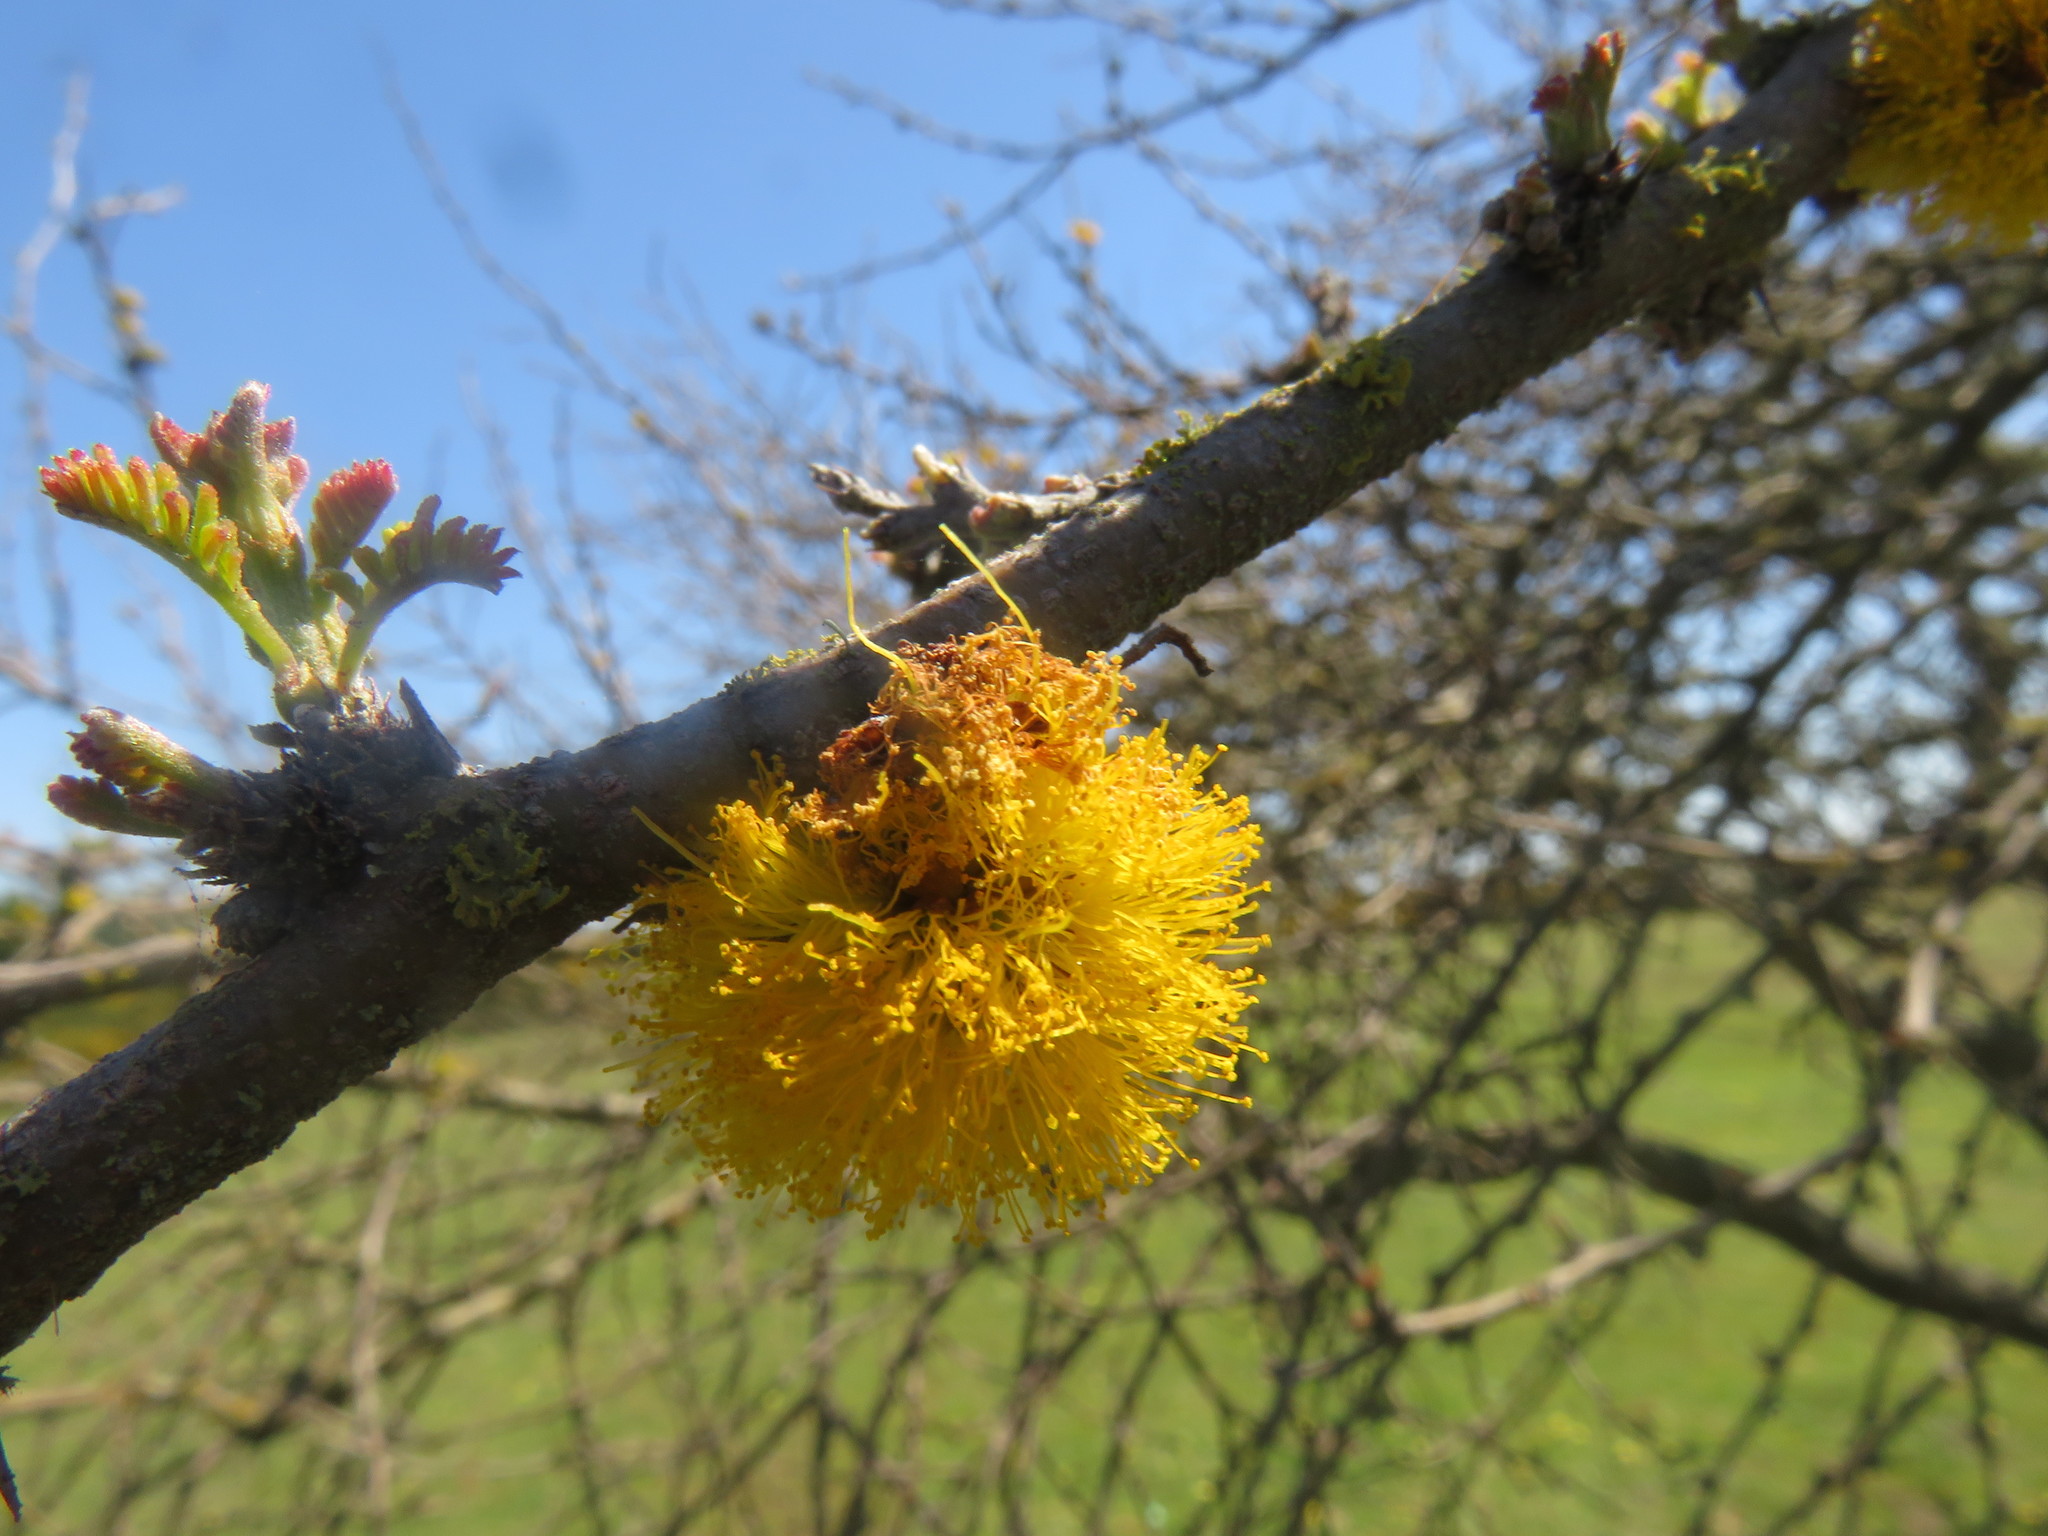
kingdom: Plantae
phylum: Tracheophyta
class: Magnoliopsida
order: Fabales
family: Fabaceae
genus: Vachellia
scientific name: Vachellia caven
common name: Roman cassie
